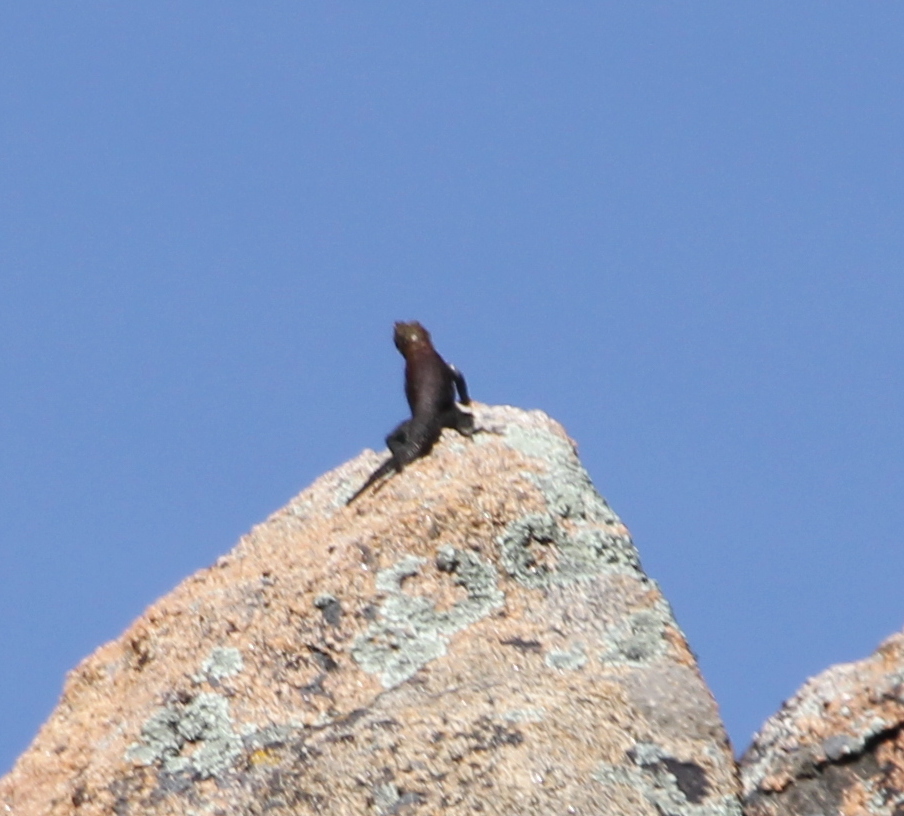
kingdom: Animalia
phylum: Chordata
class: Squamata
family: Phrynosomatidae
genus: Sceloporus
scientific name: Sceloporus orcutti
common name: Granite spiny lizard
